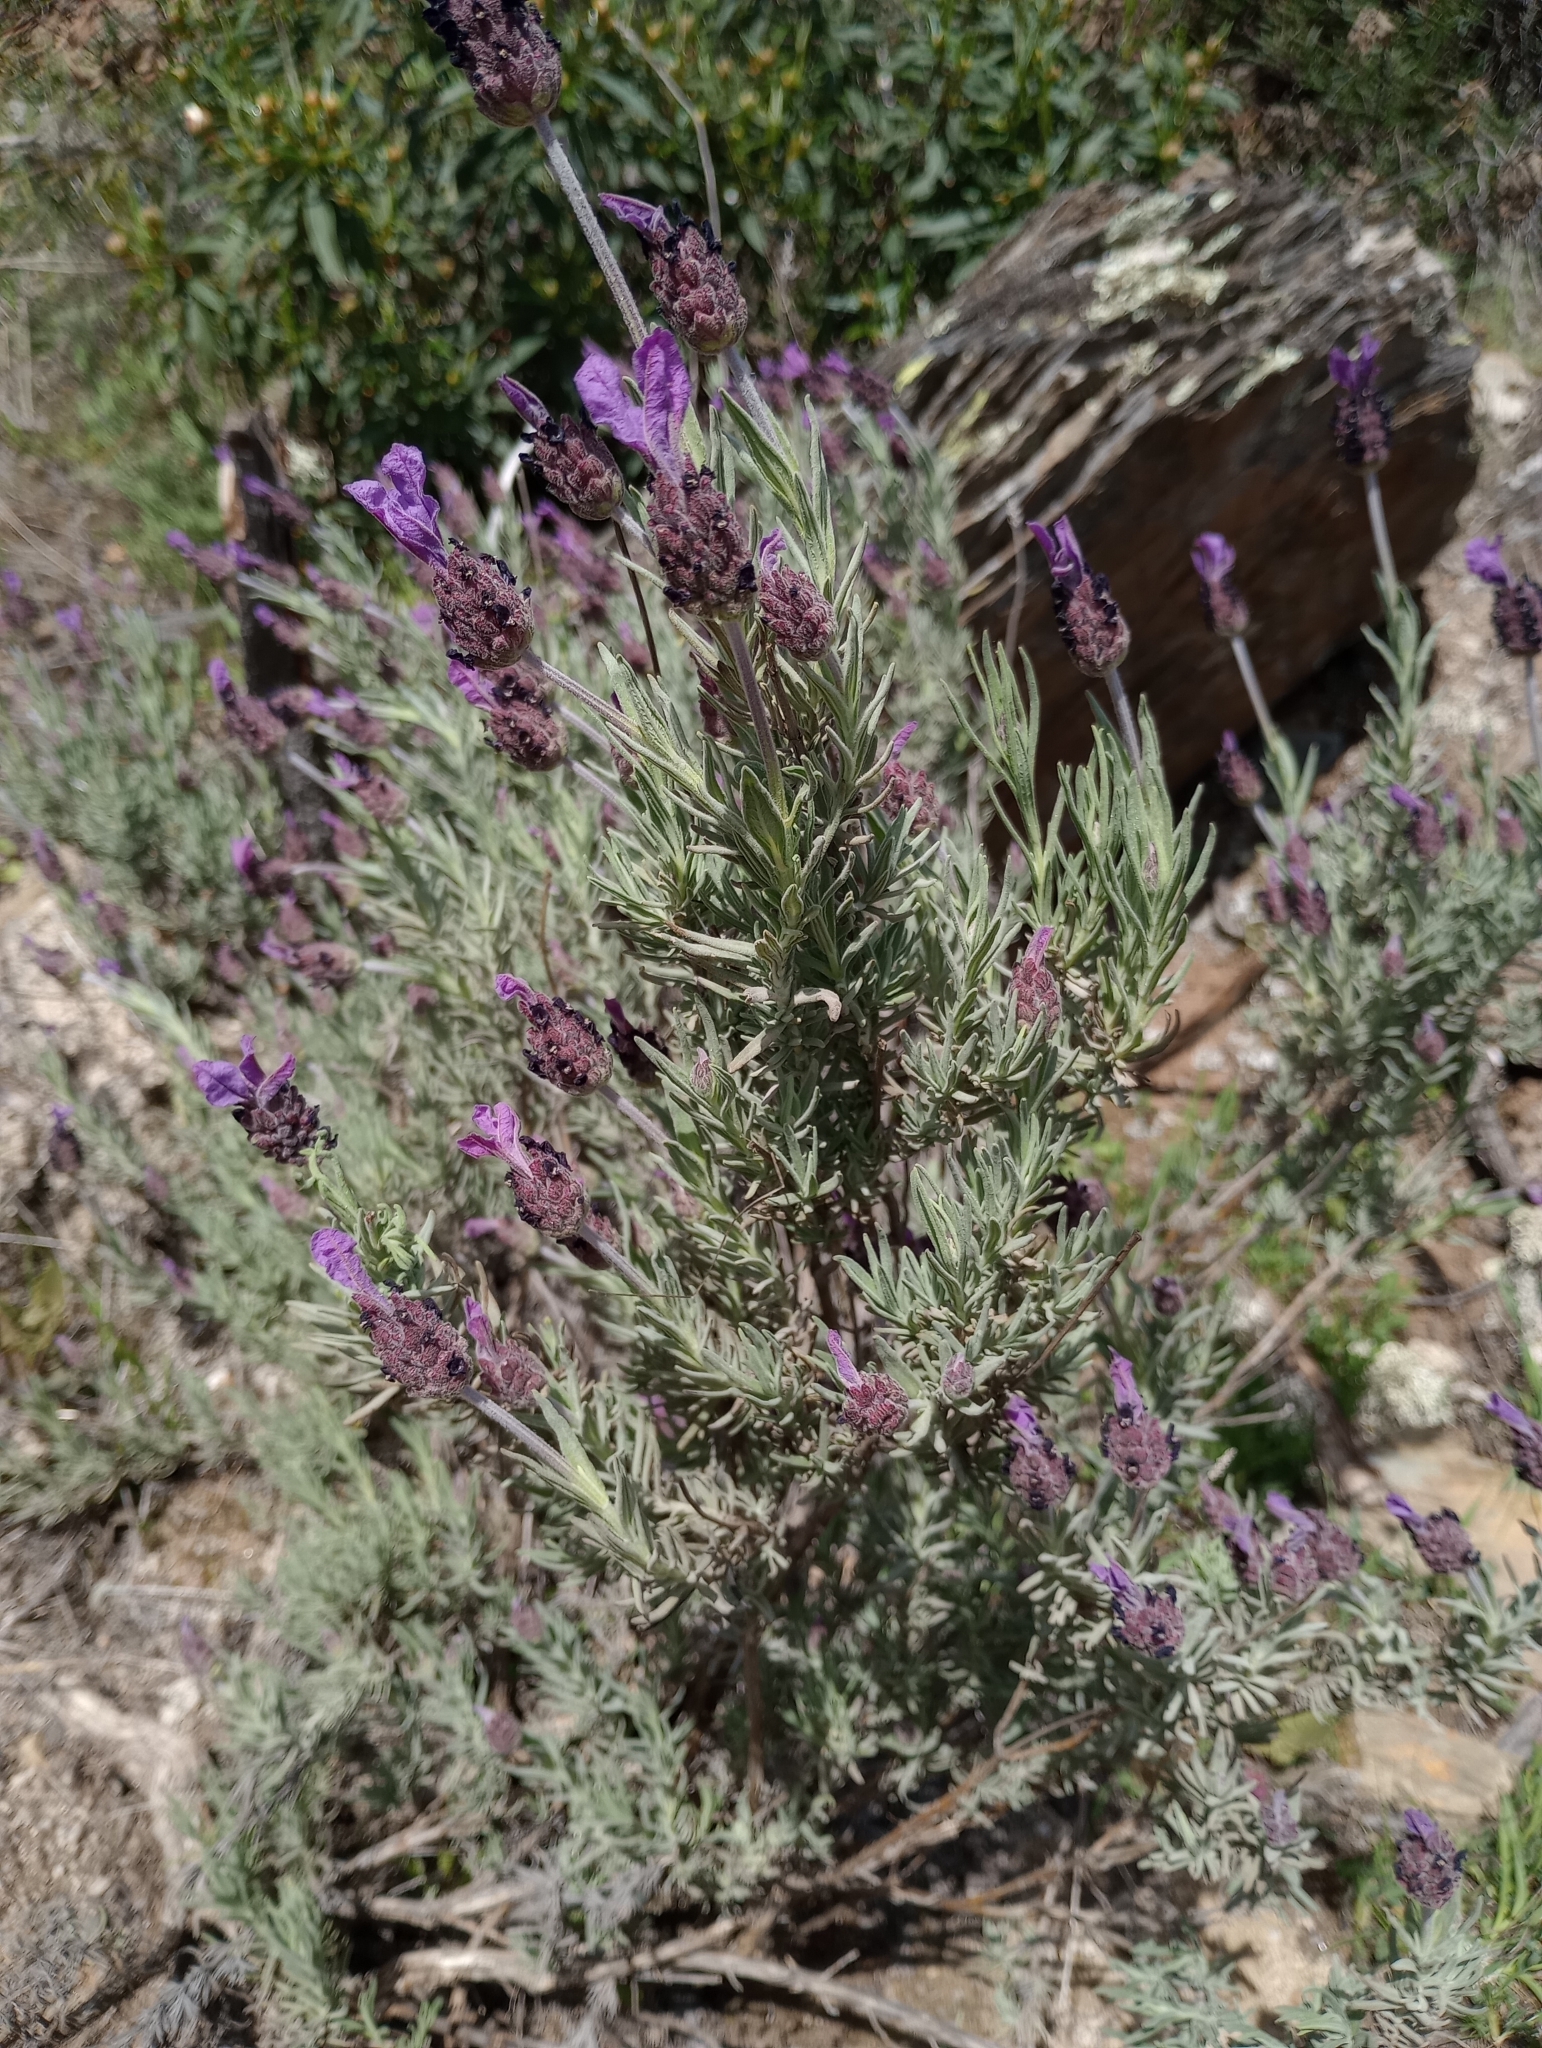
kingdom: Plantae
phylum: Tracheophyta
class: Magnoliopsida
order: Lamiales
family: Lamiaceae
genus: Lavandula
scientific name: Lavandula pedunculata
